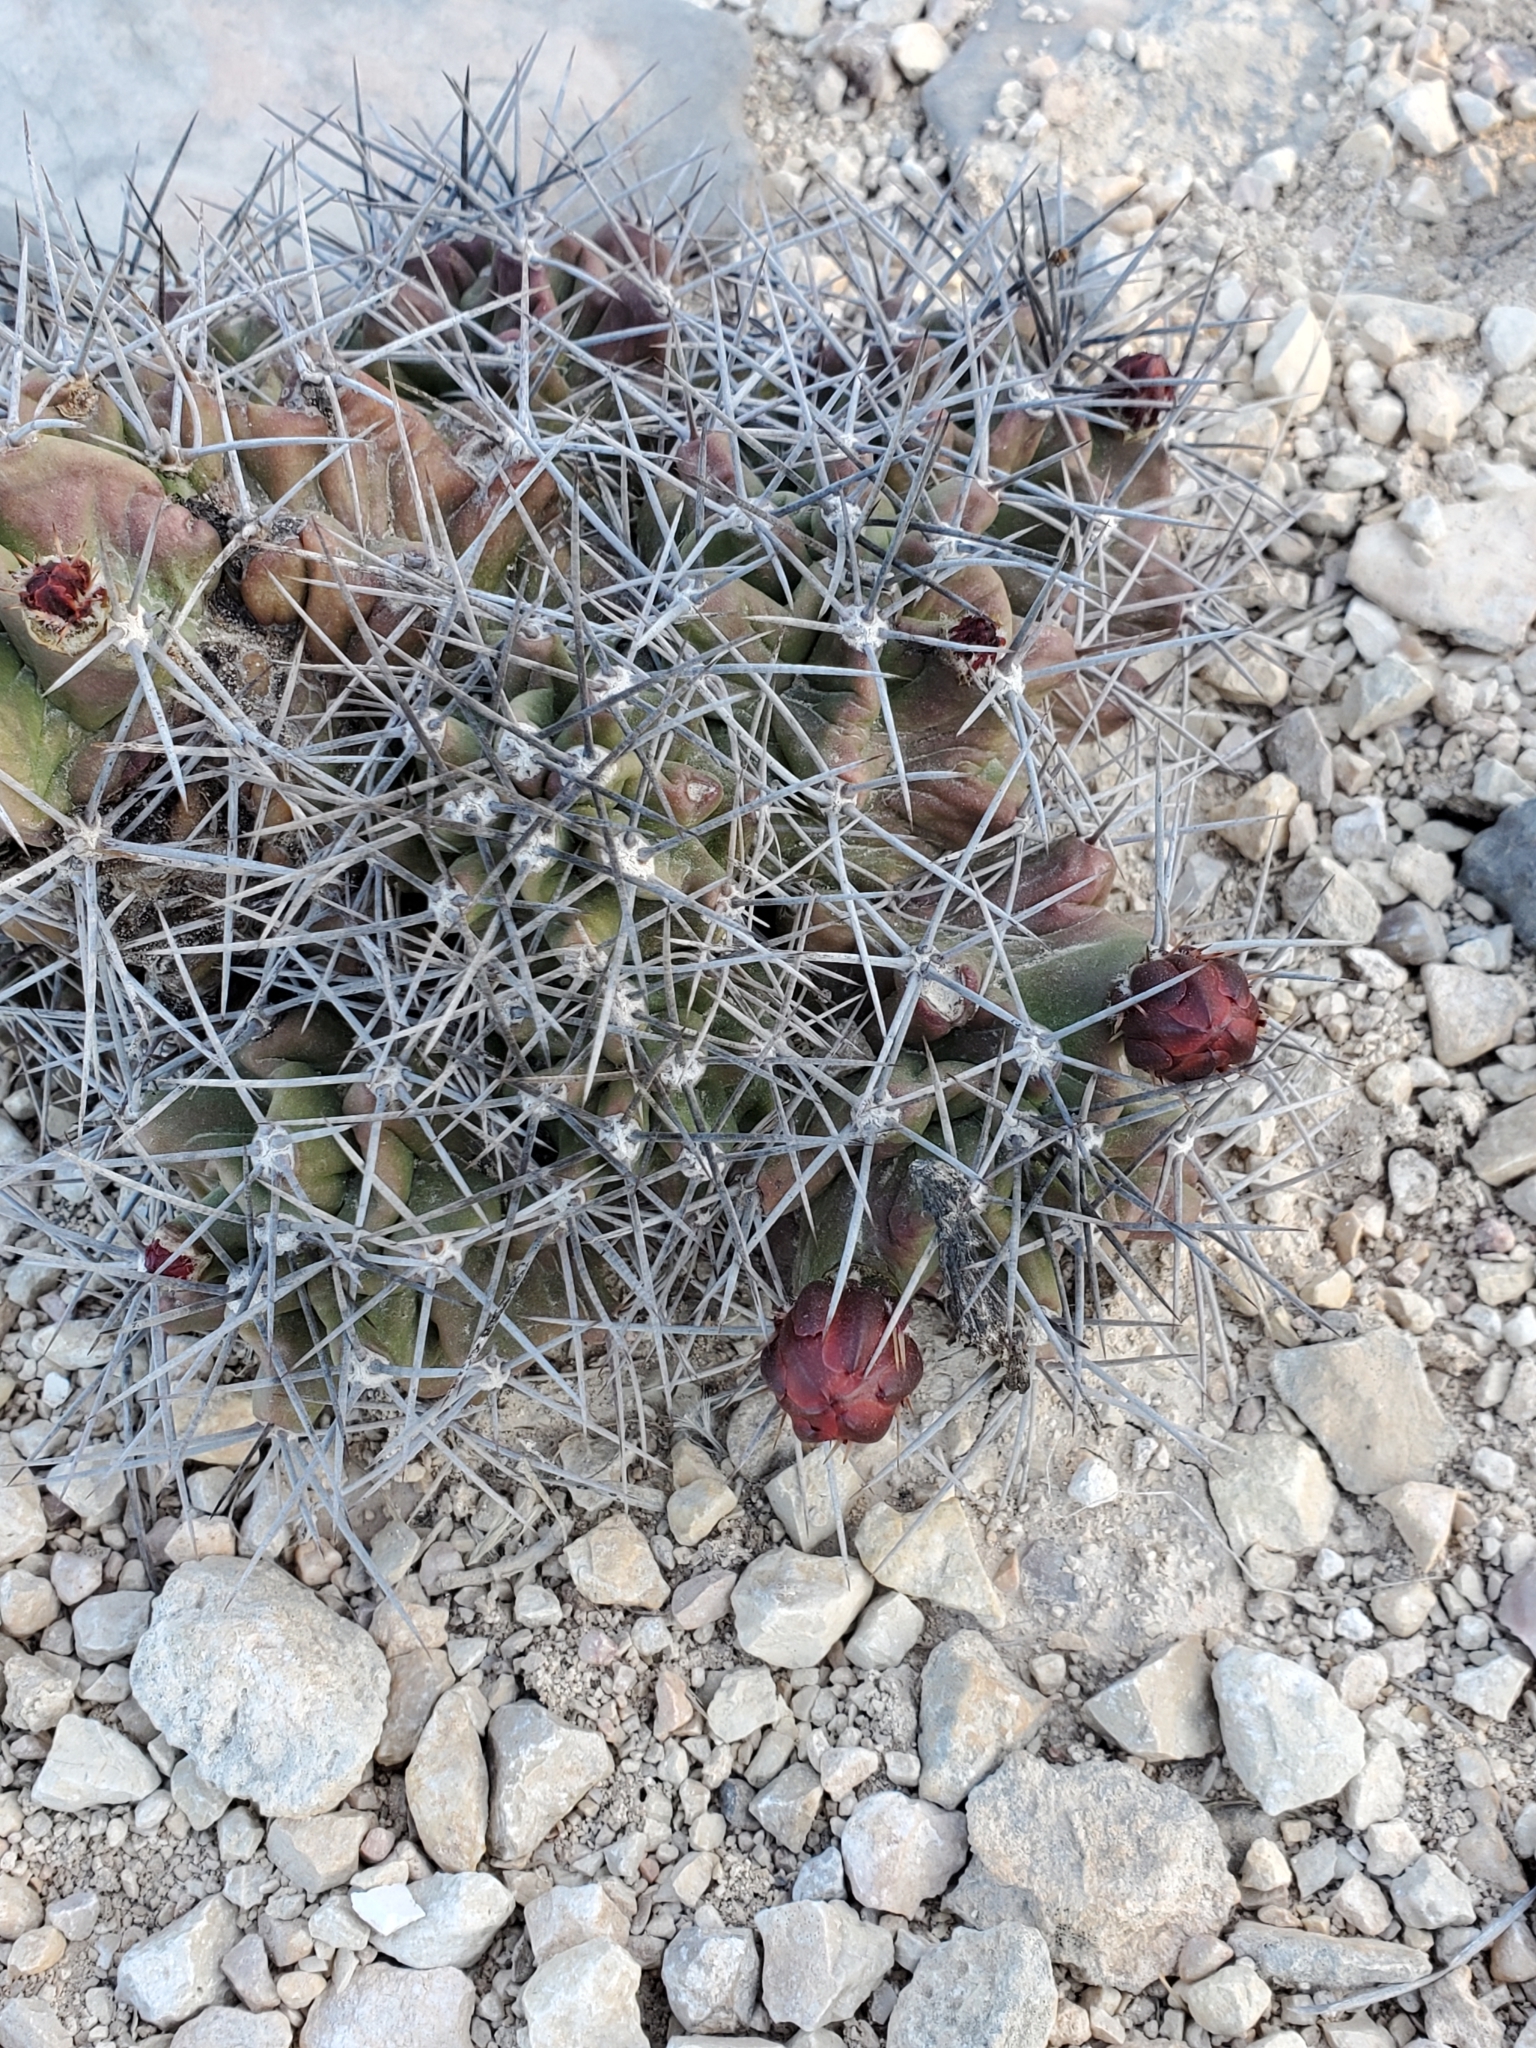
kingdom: Plantae
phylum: Tracheophyta
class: Magnoliopsida
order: Caryophyllales
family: Cactaceae
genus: Echinocereus
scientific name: Echinocereus coccineus
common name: Scarlet hedgehog cactus
